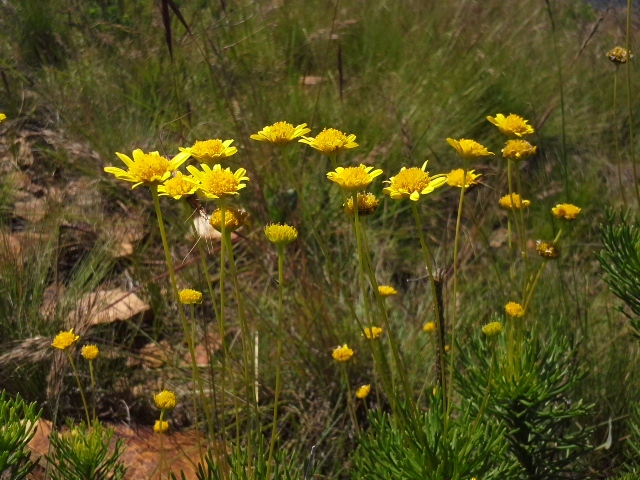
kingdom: Plantae
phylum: Tracheophyta
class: Magnoliopsida
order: Asterales
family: Asteraceae
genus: Euryops
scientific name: Euryops pedunculatus
